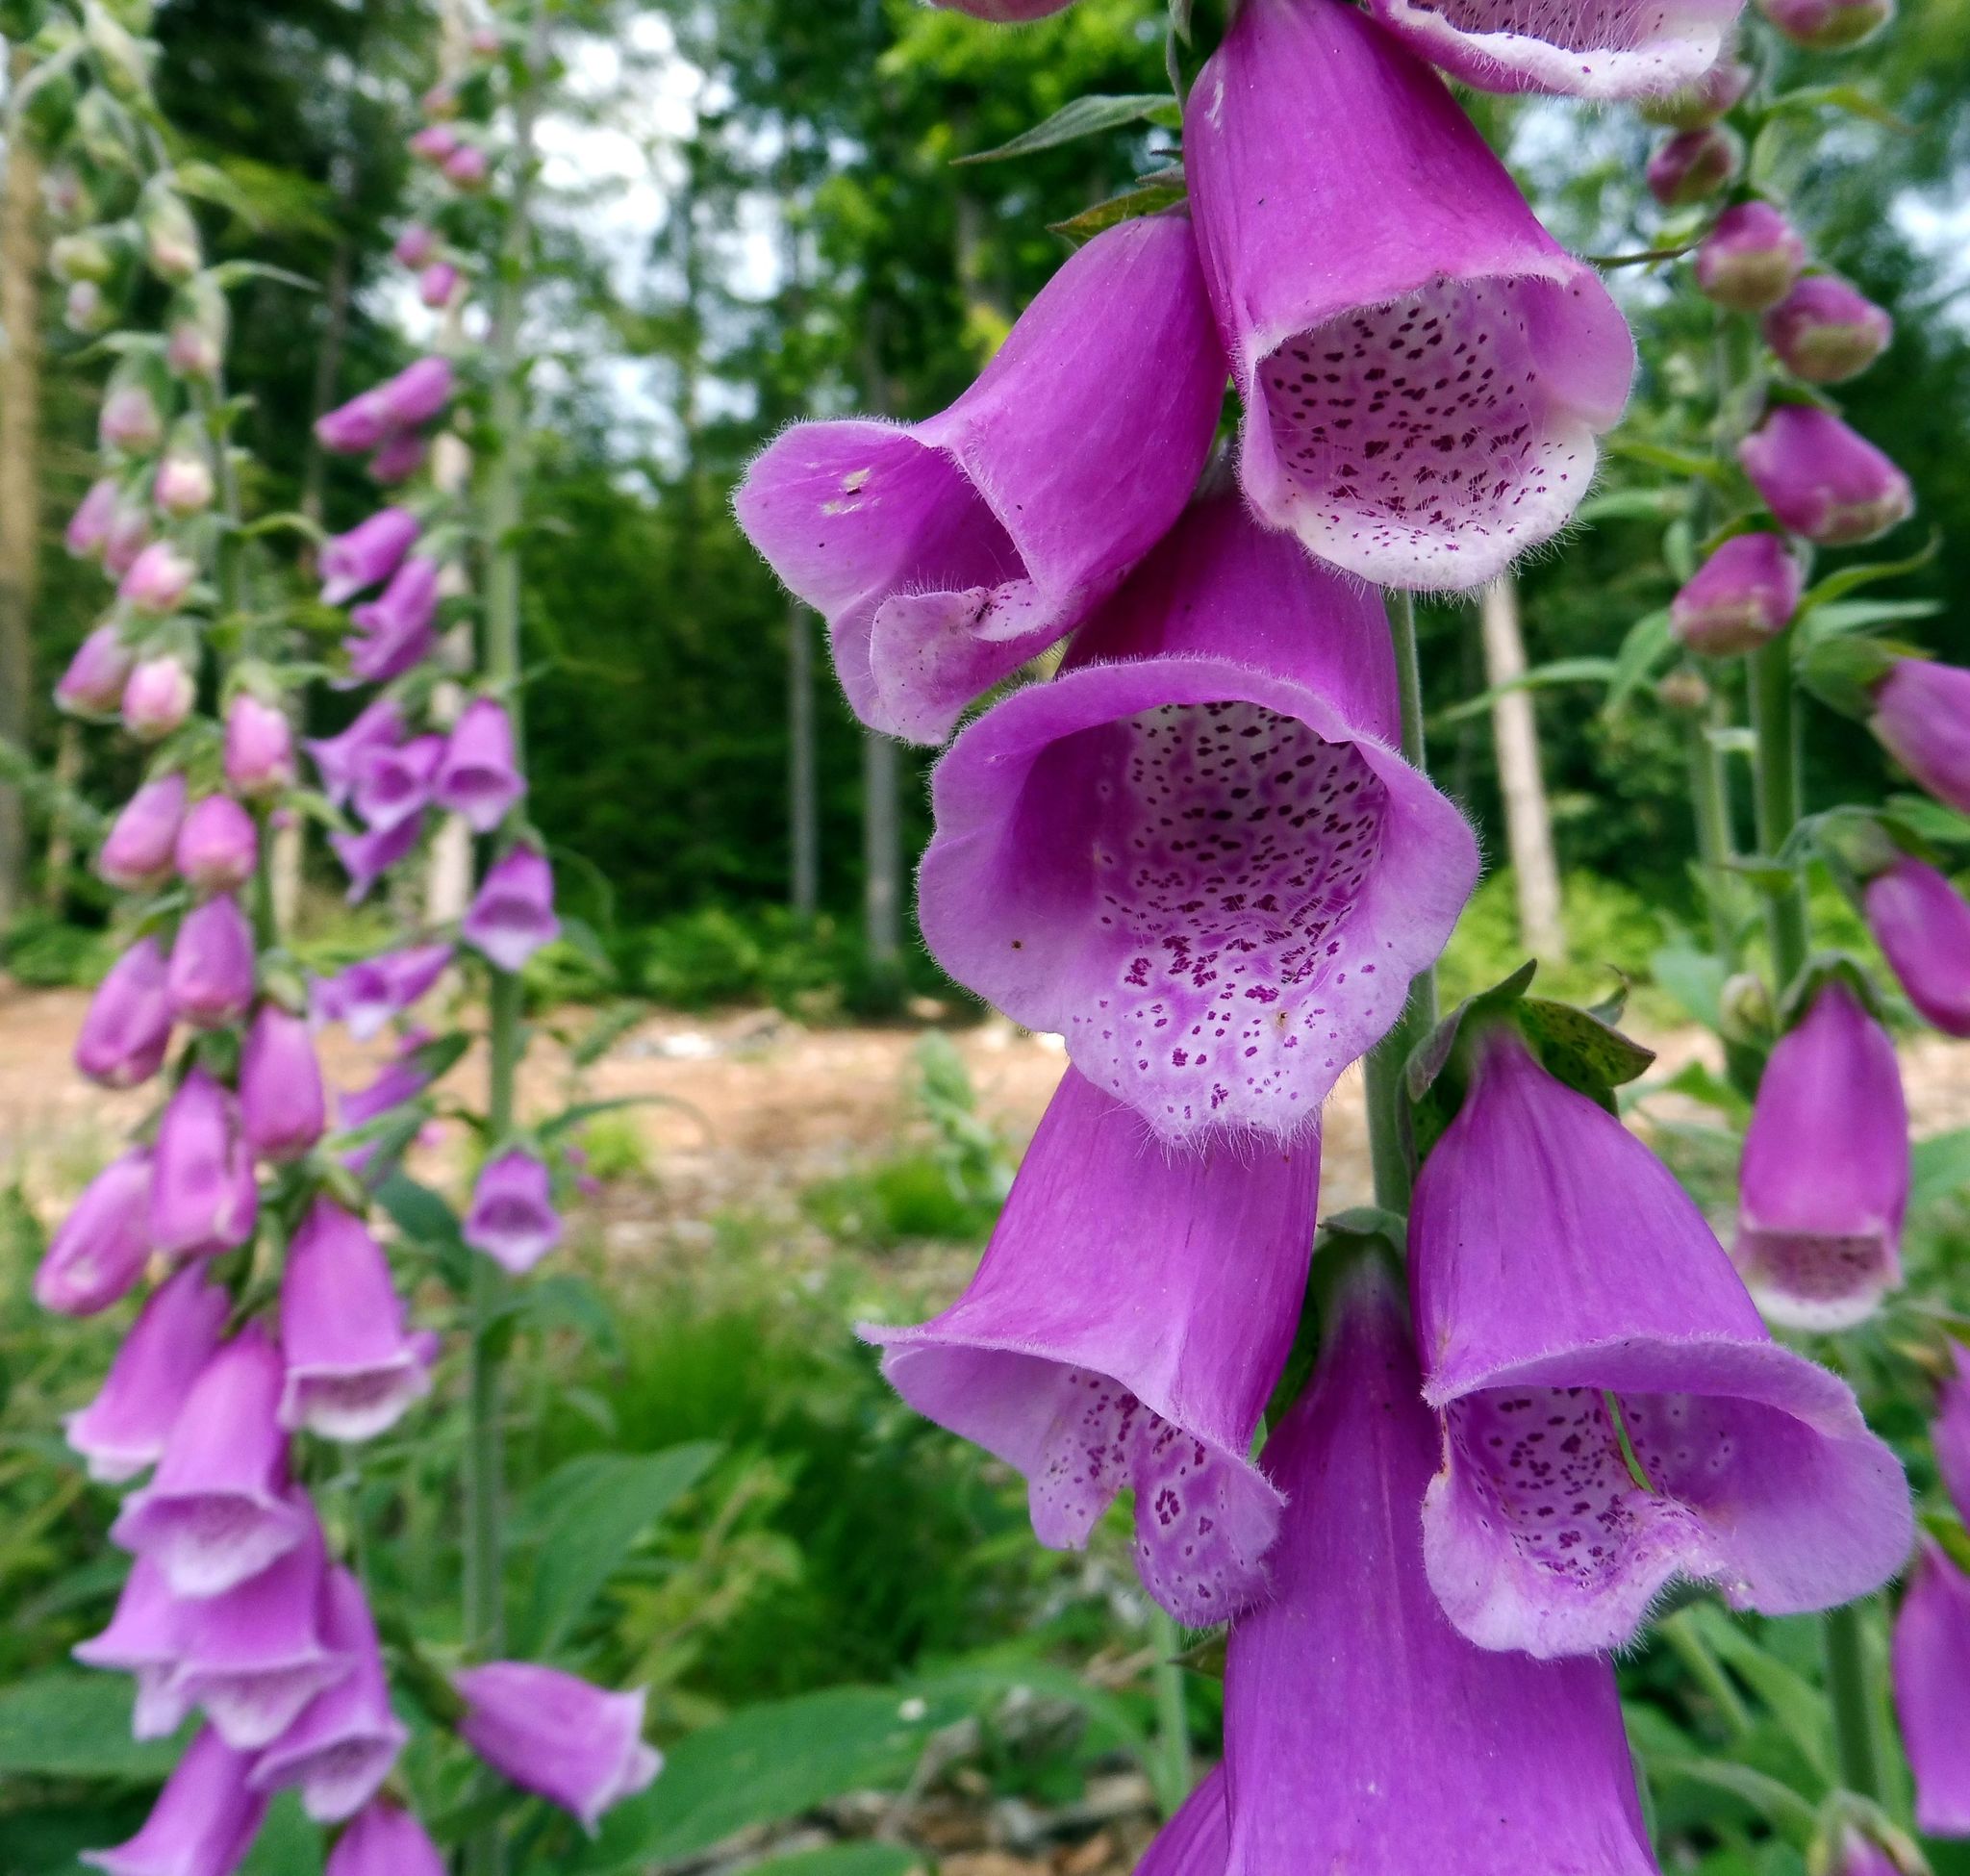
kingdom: Plantae
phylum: Tracheophyta
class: Magnoliopsida
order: Lamiales
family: Plantaginaceae
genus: Digitalis
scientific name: Digitalis purpurea
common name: Foxglove
